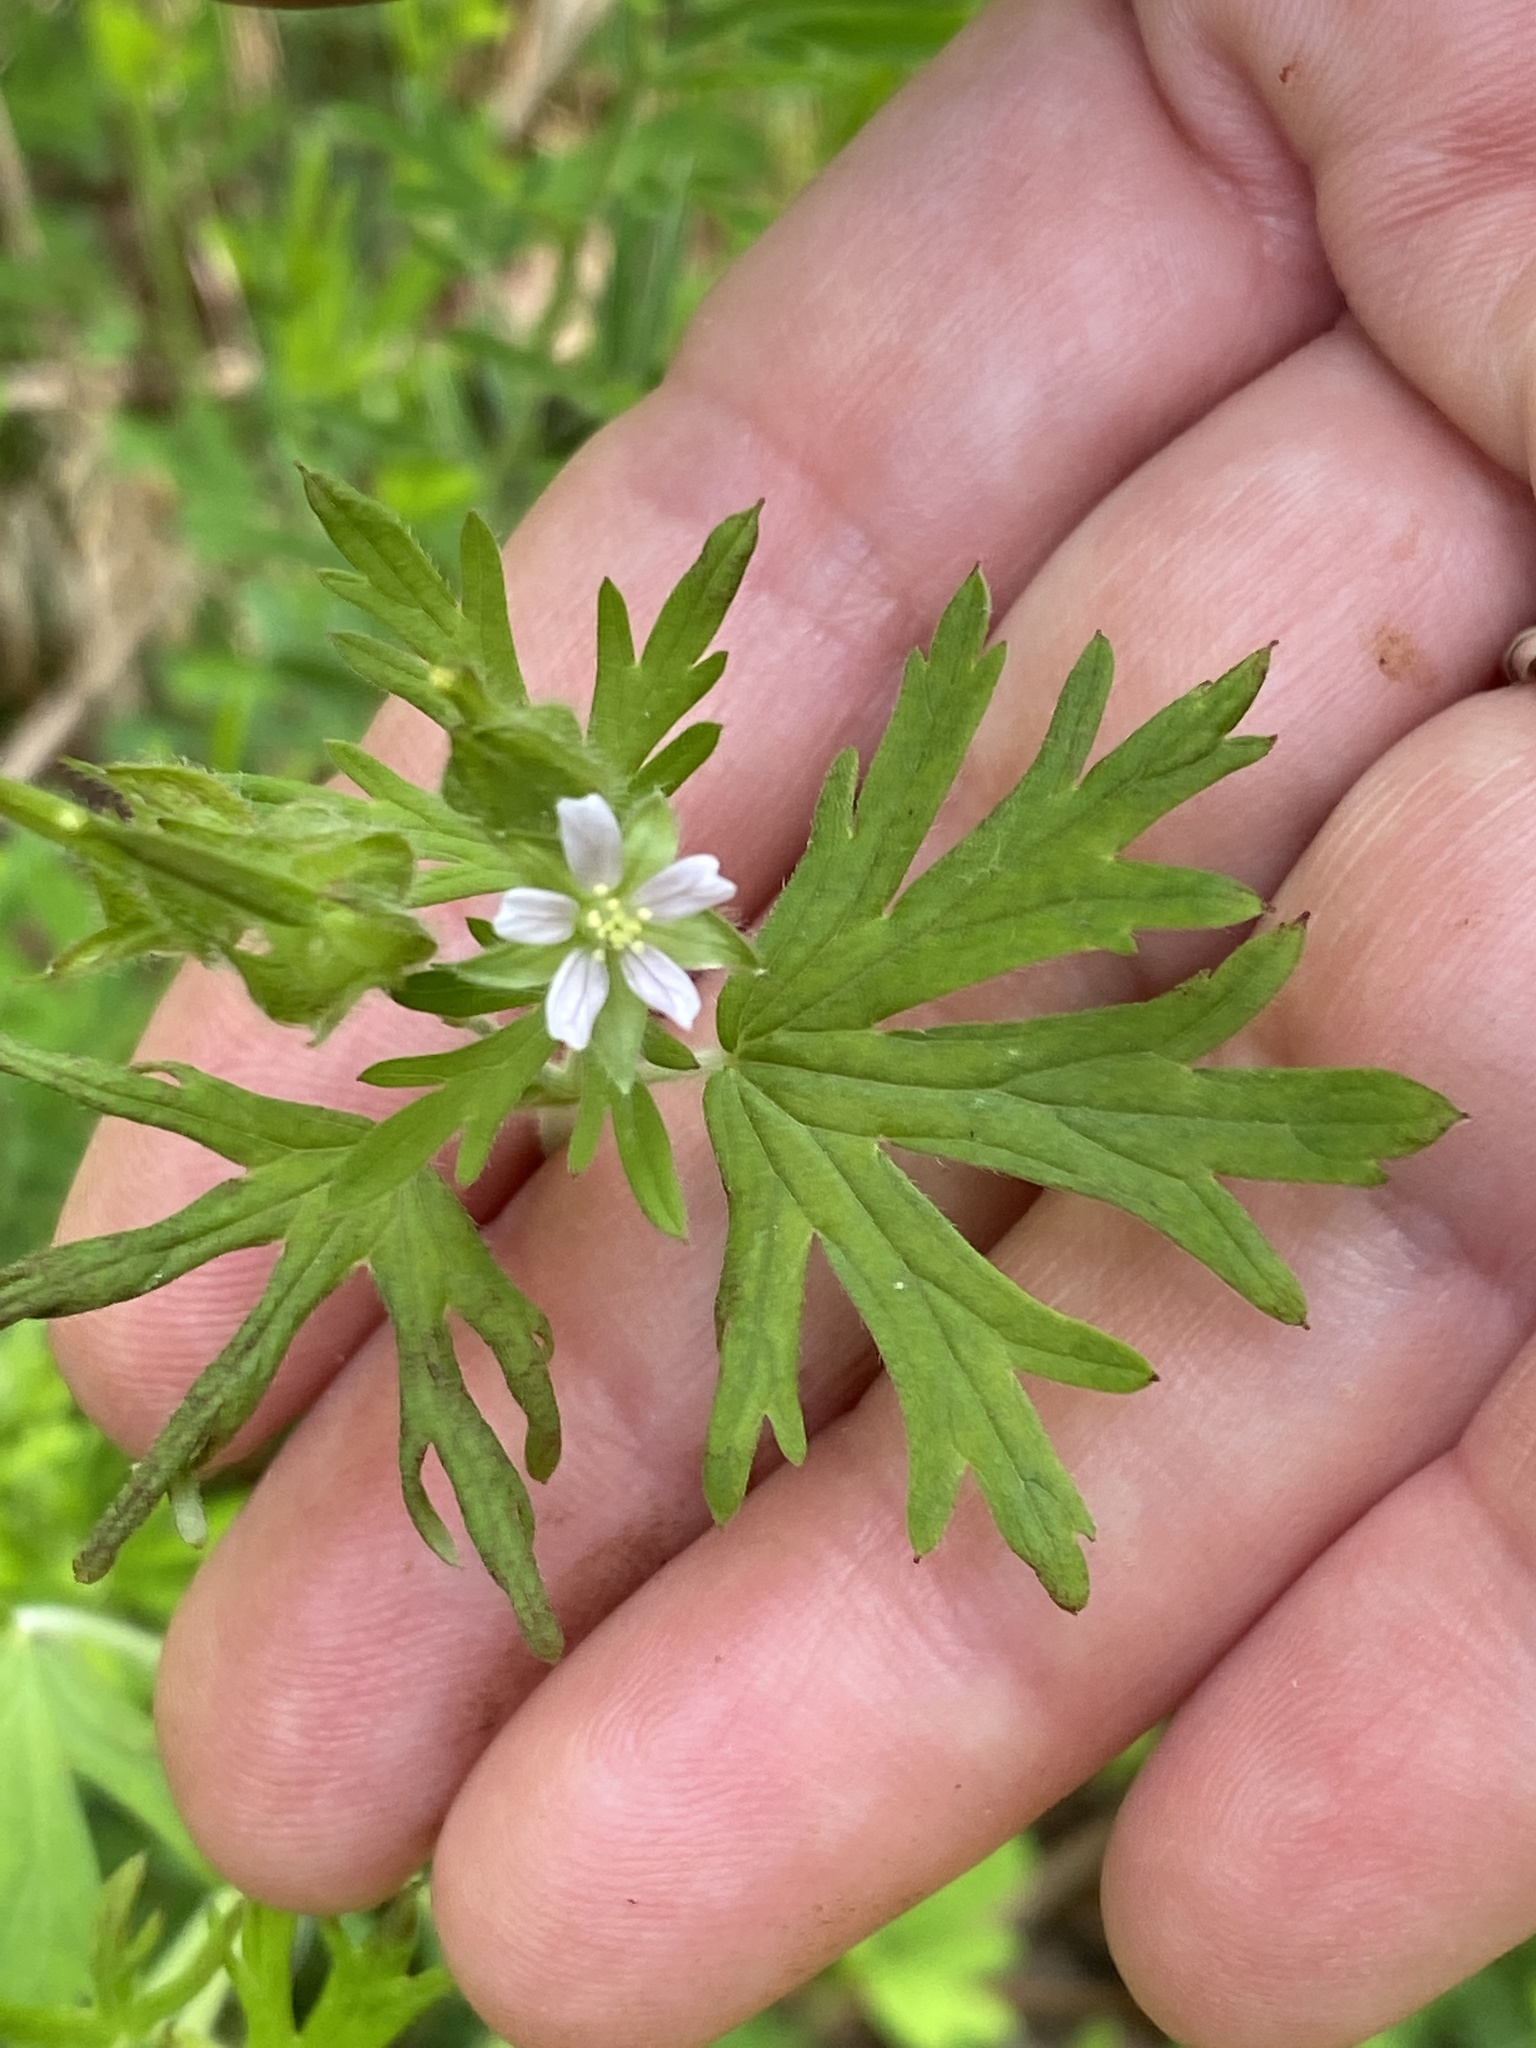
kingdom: Plantae
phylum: Tracheophyta
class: Magnoliopsida
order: Geraniales
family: Geraniaceae
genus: Geranium
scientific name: Geranium carolinianum
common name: Carolina crane's-bill
